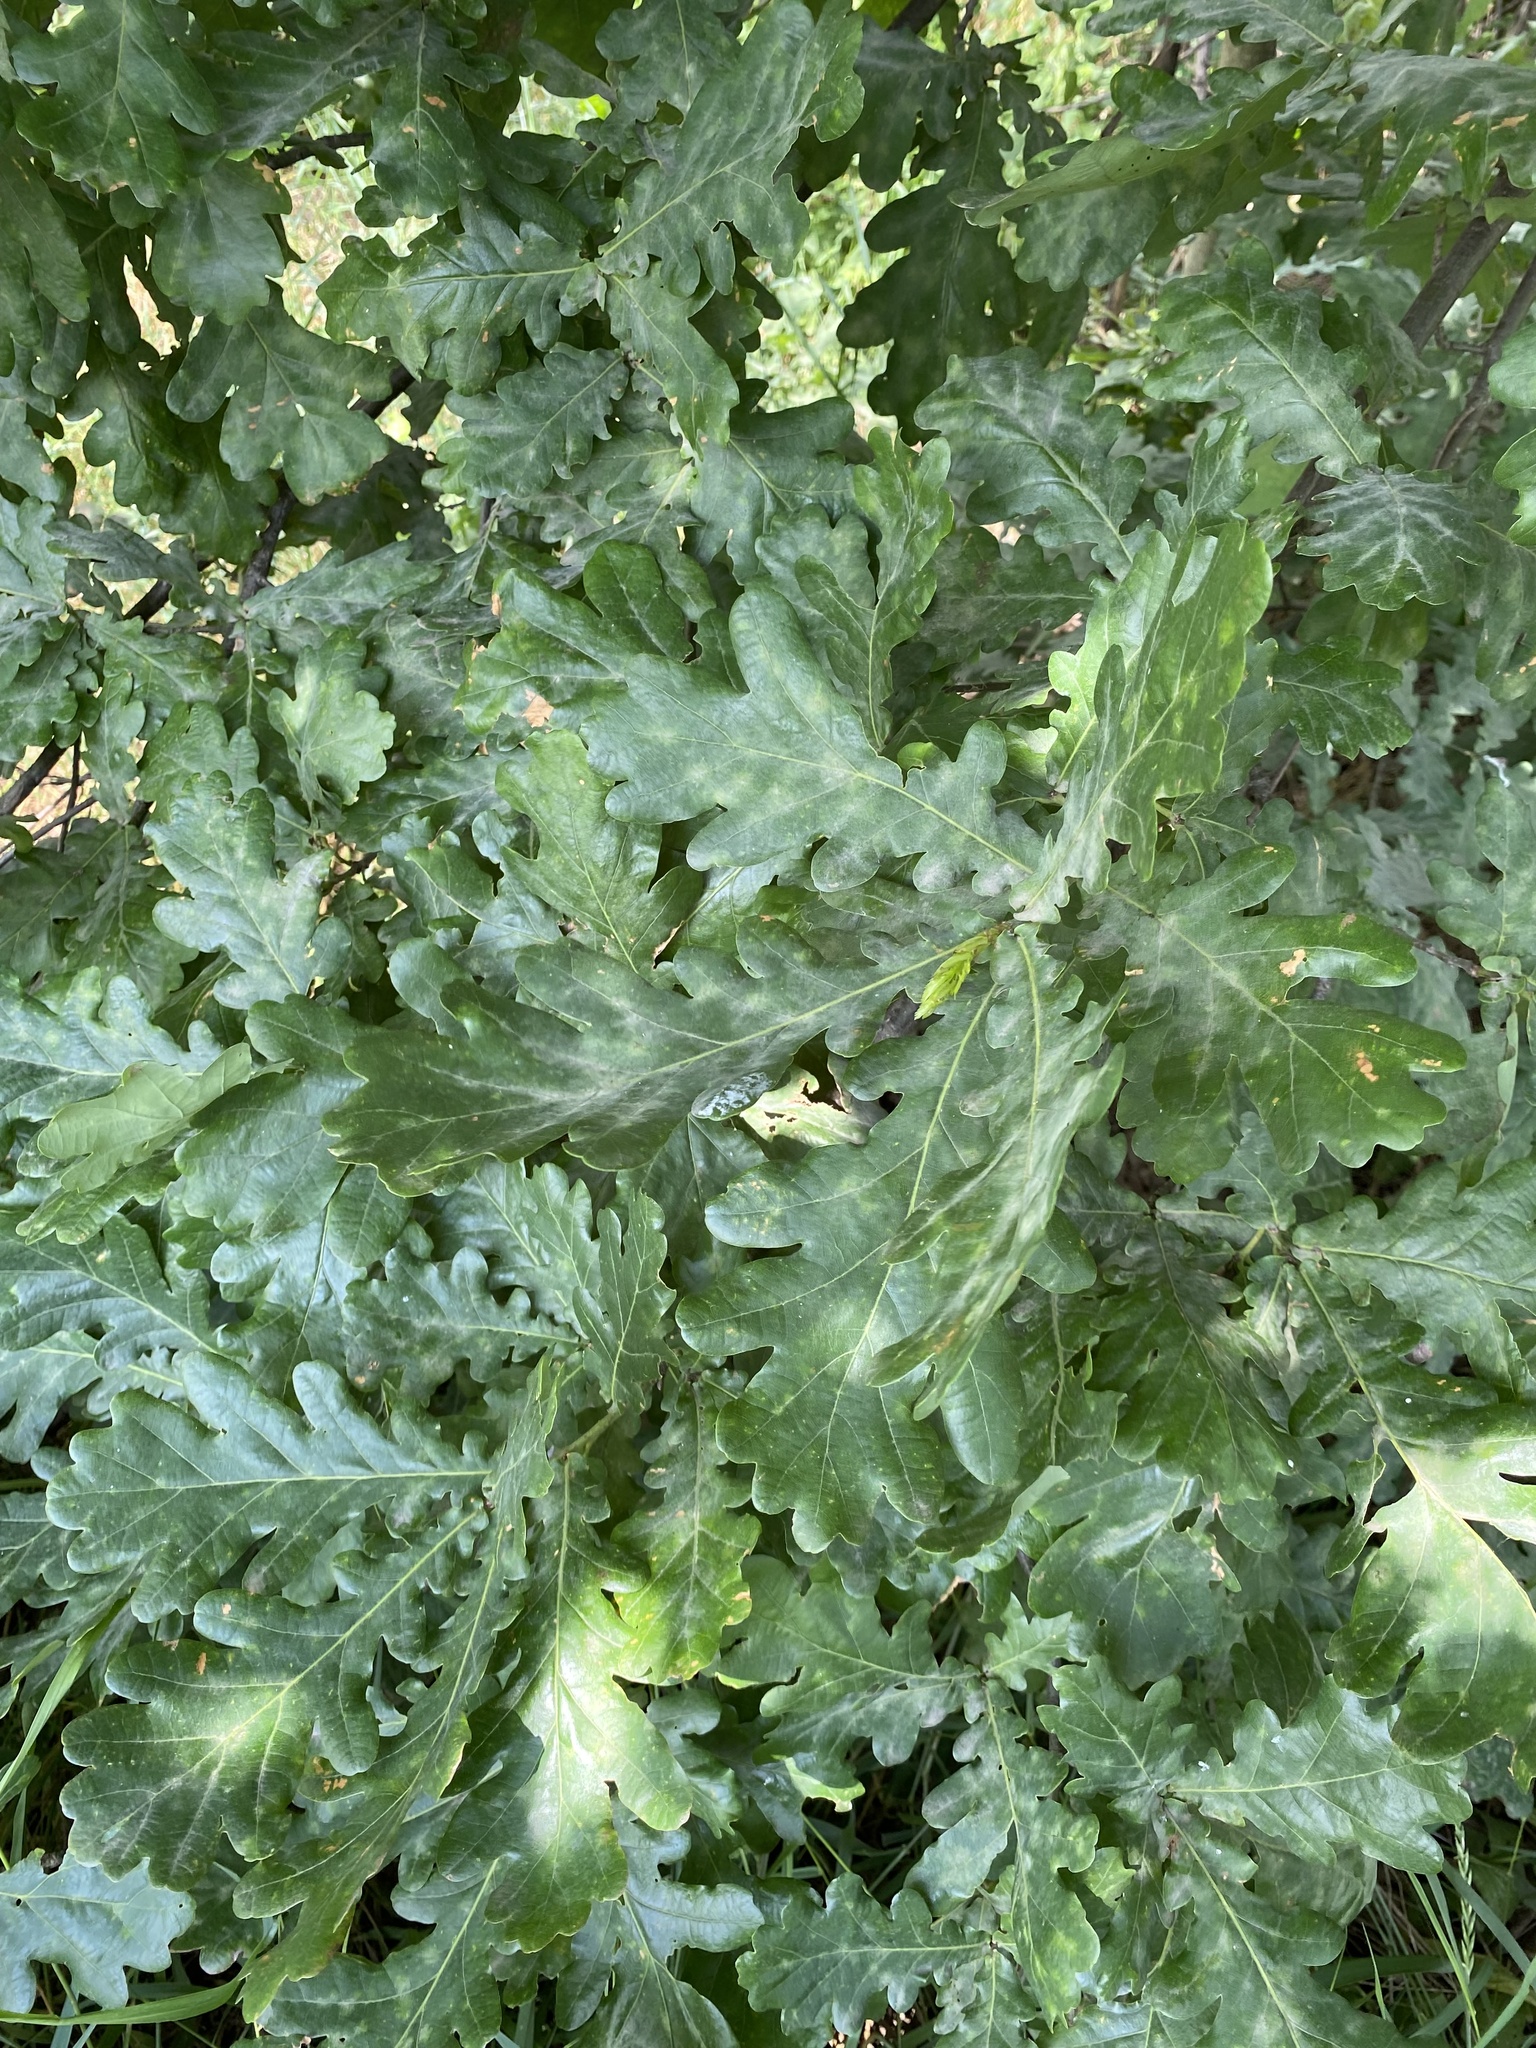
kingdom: Plantae
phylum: Tracheophyta
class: Magnoliopsida
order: Fagales
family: Fagaceae
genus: Quercus
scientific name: Quercus robur
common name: Pedunculate oak
